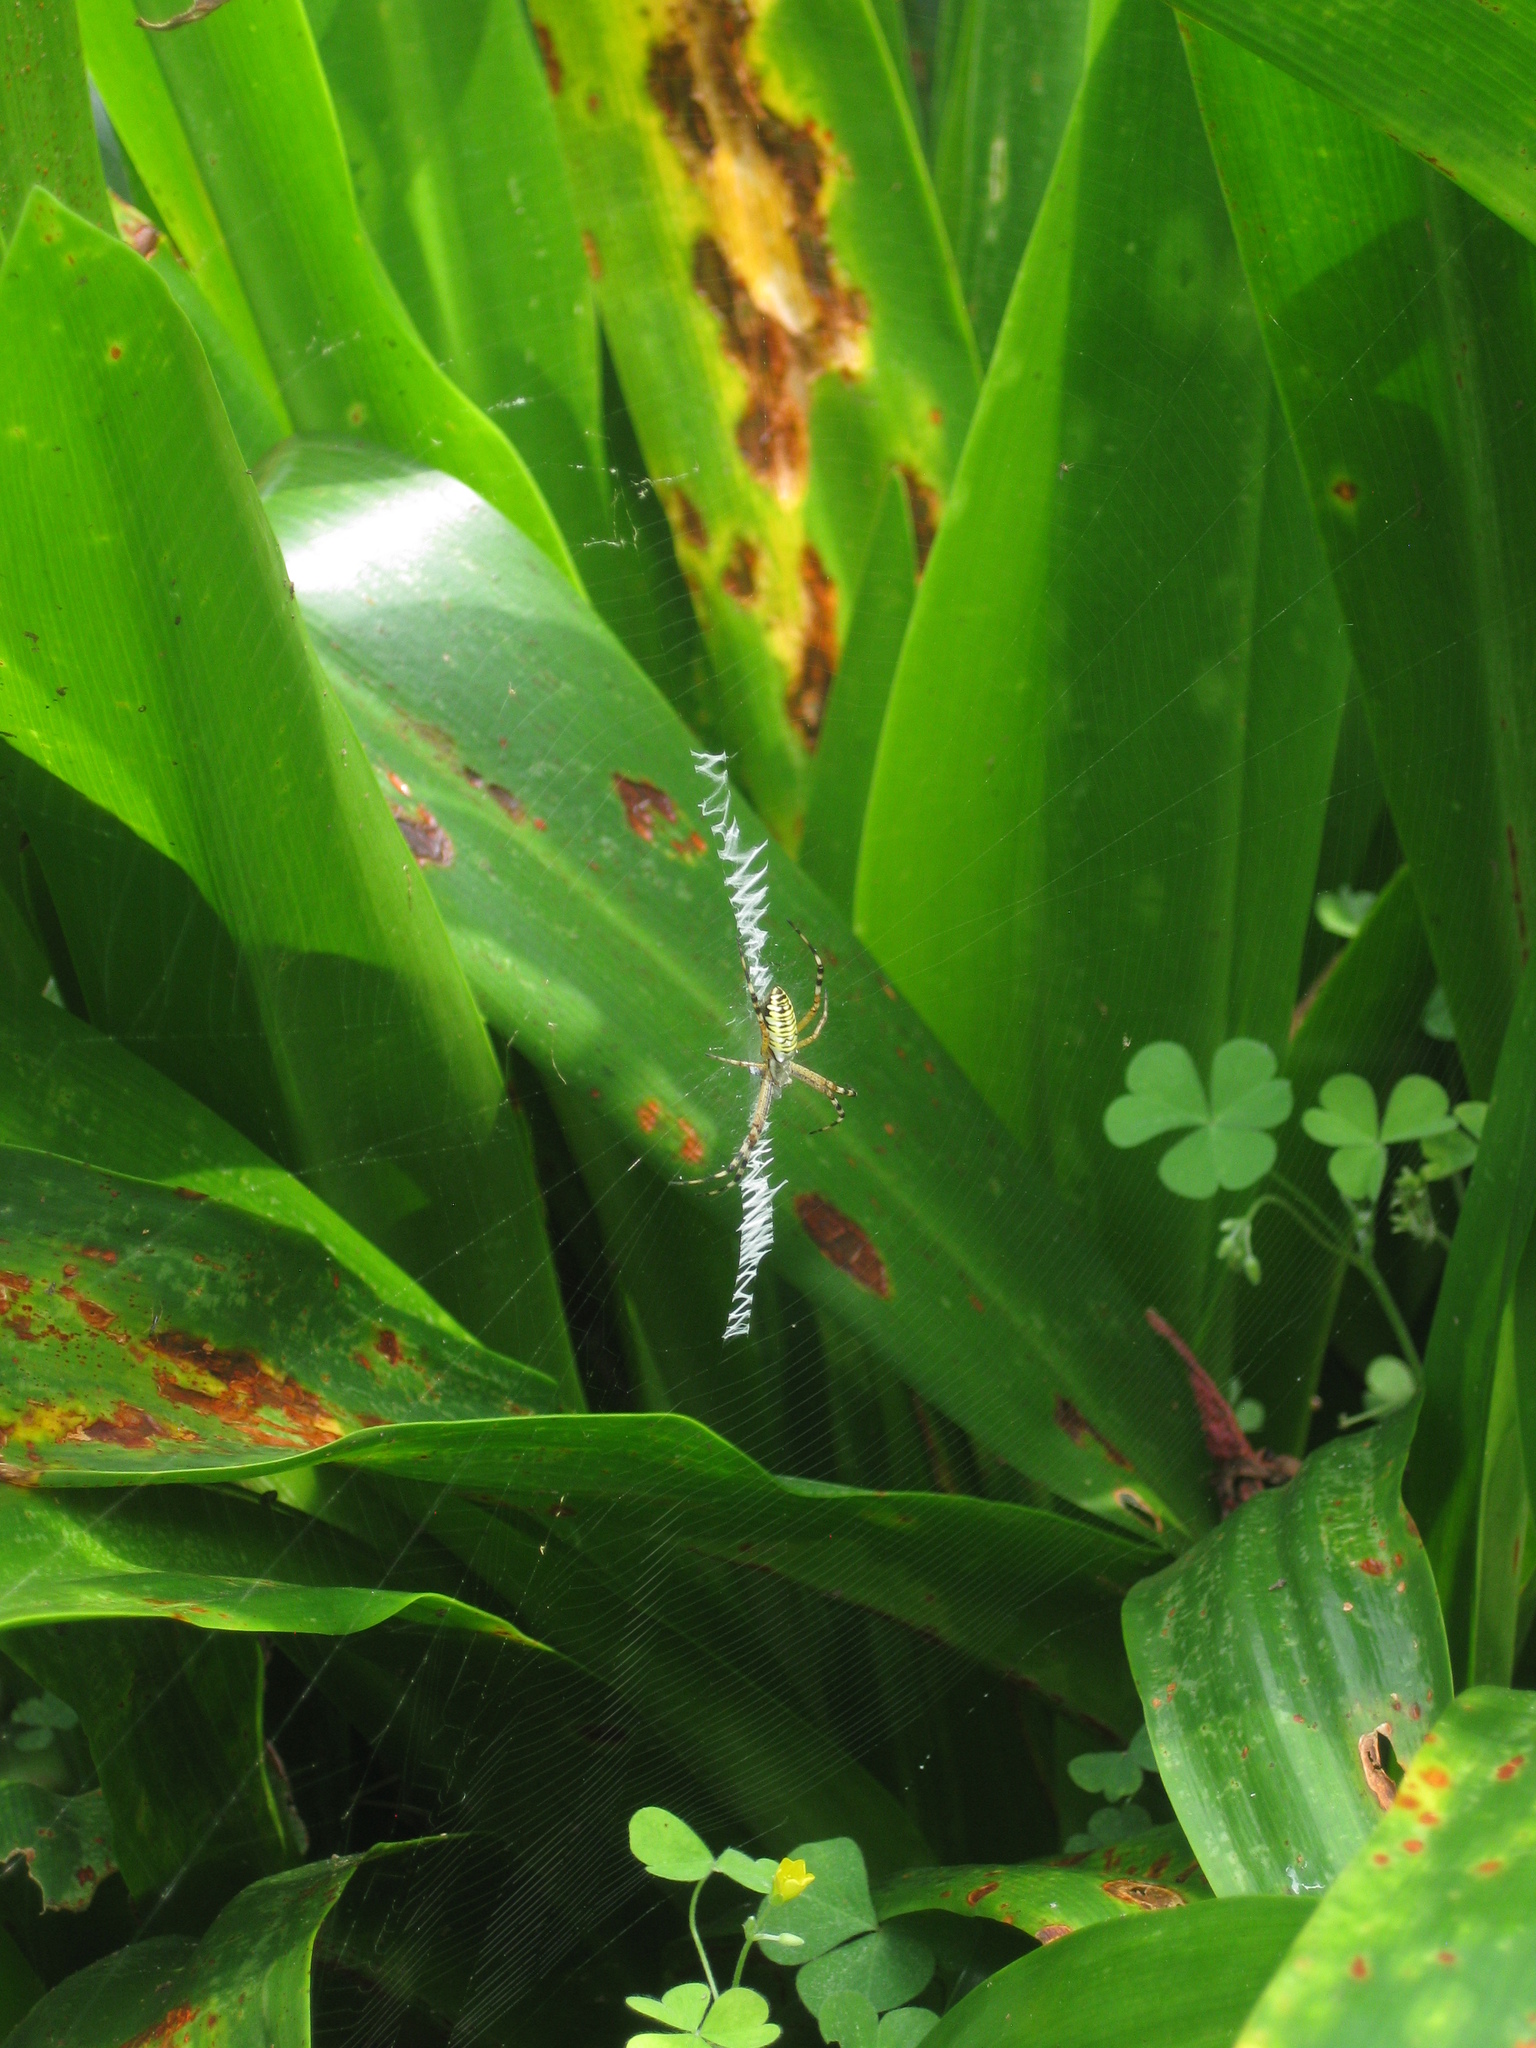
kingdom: Animalia
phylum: Arthropoda
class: Arachnida
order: Araneae
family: Araneidae
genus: Argiope
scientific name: Argiope bruennichi
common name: Wasp spider
